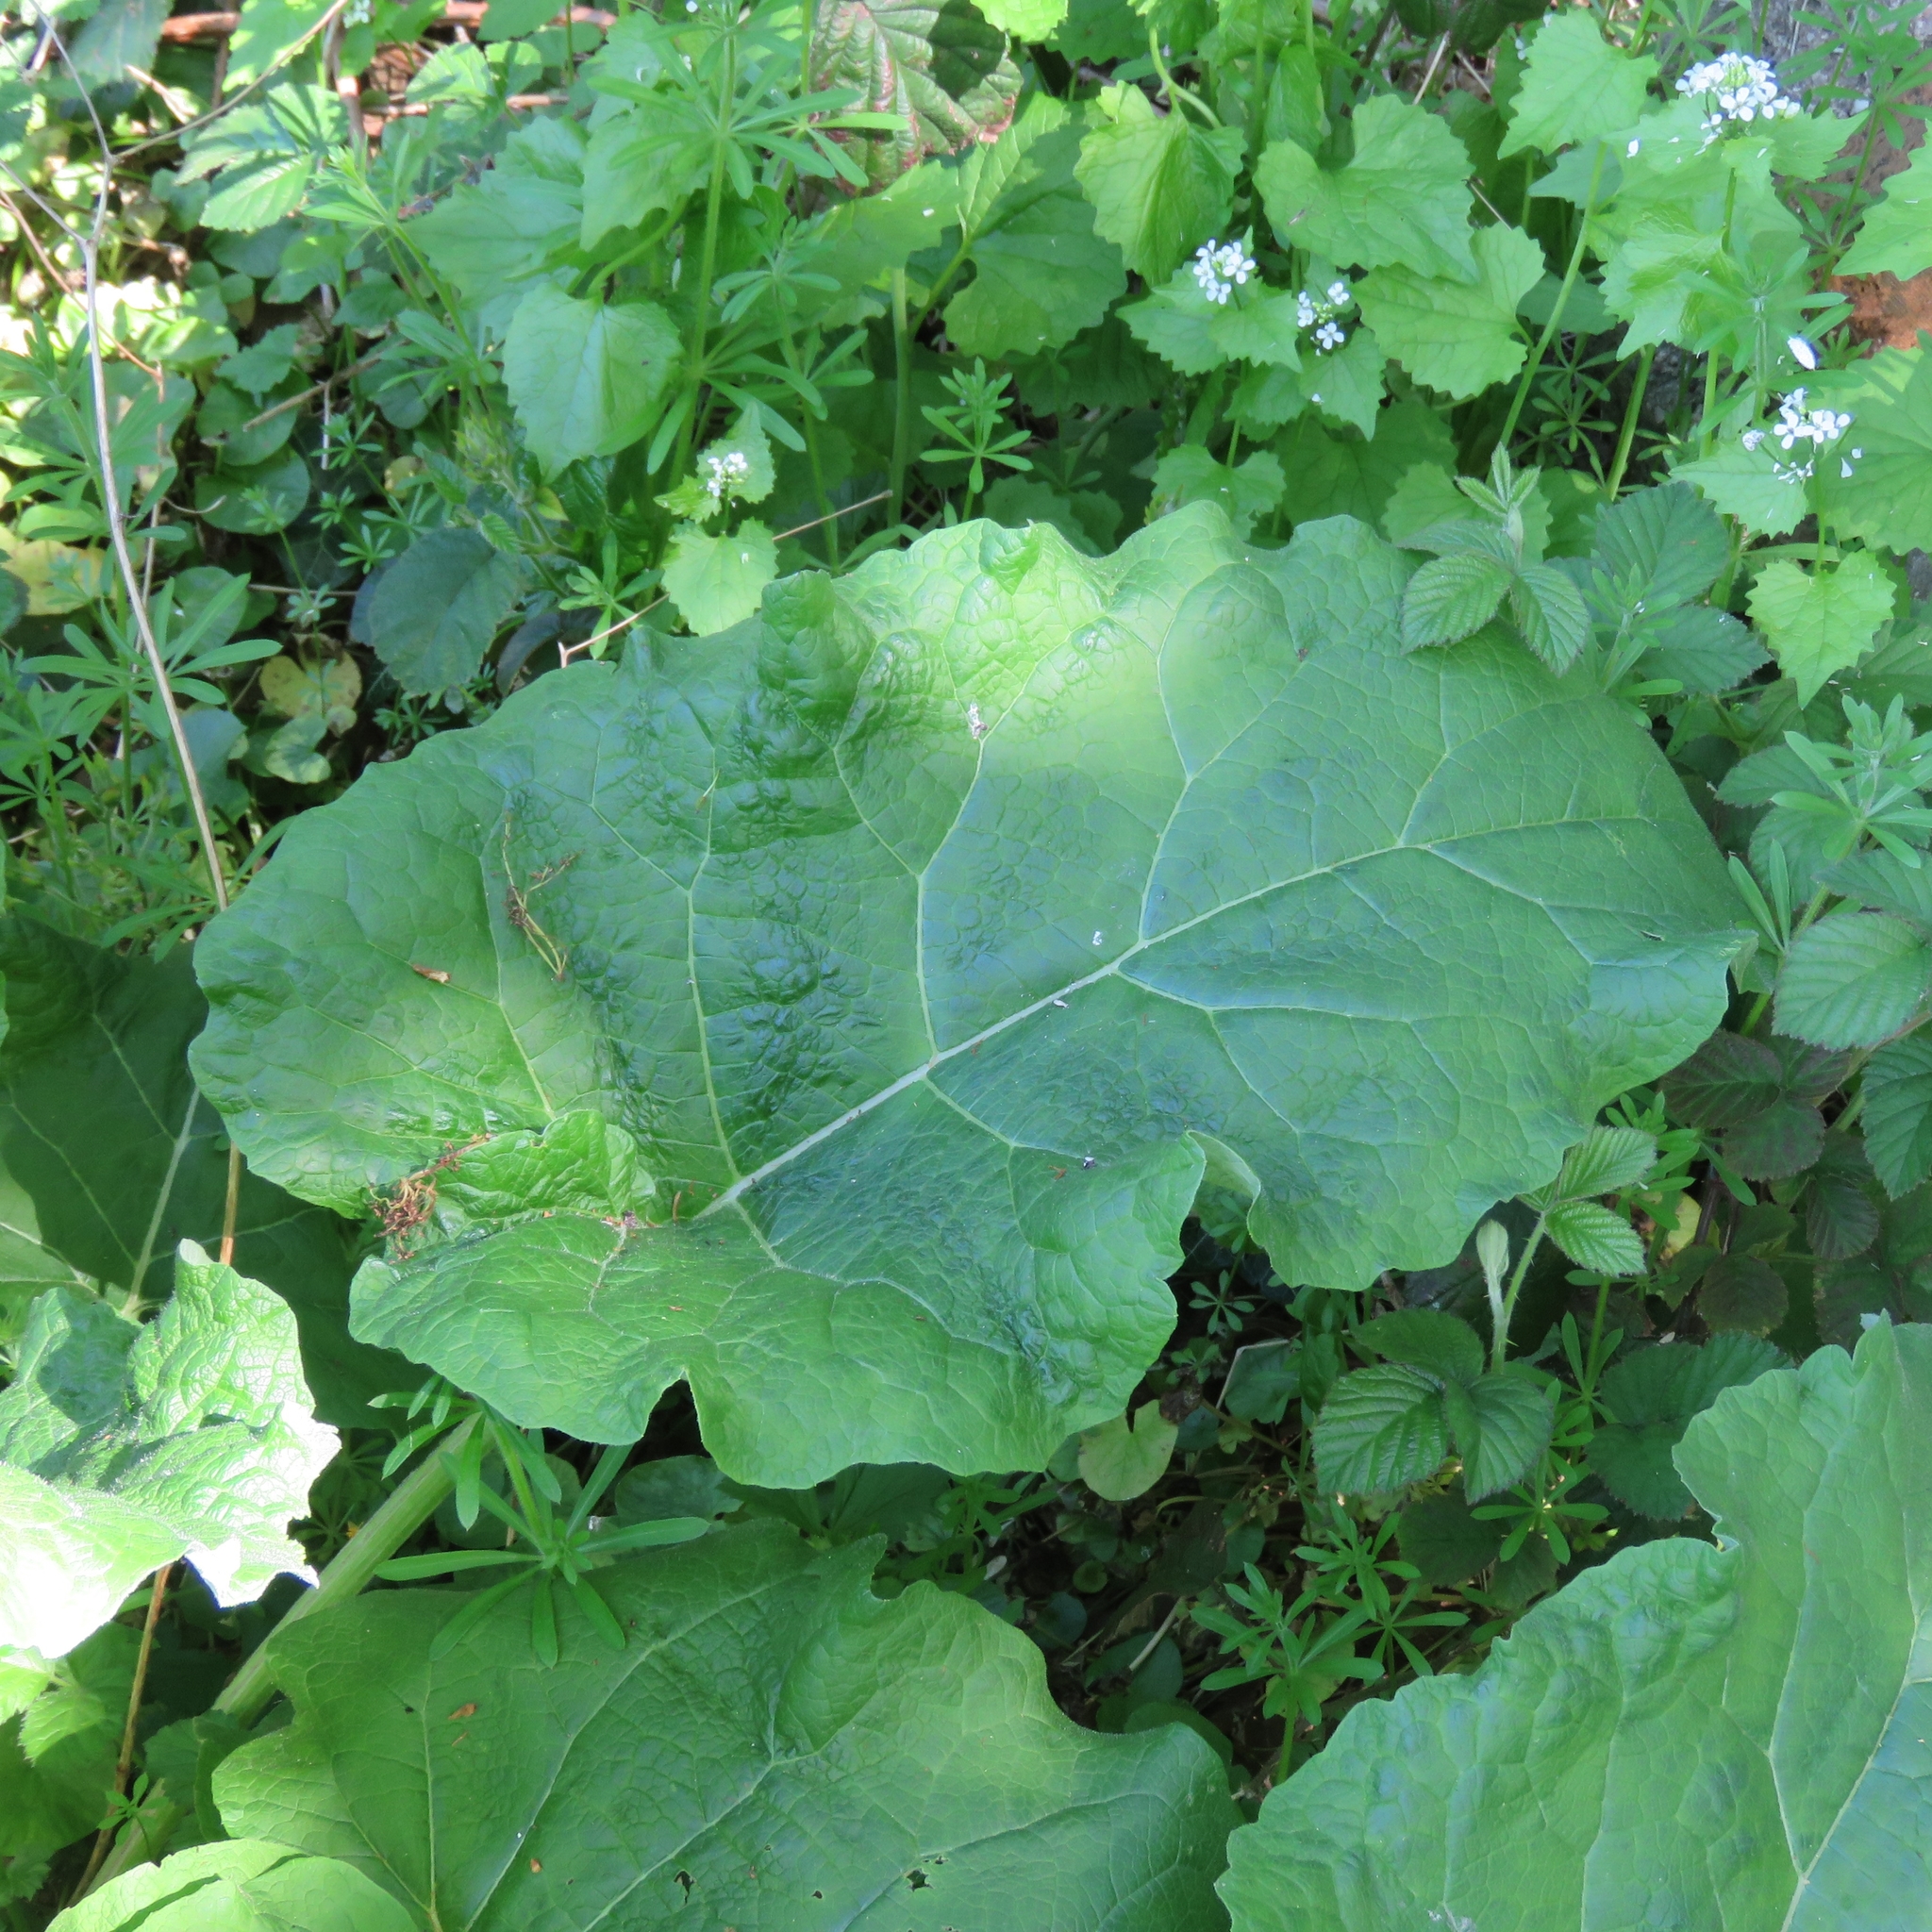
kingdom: Plantae
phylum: Tracheophyta
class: Magnoliopsida
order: Asterales
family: Asteraceae
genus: Arctium
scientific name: Arctium lappa
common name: Greater burdock
